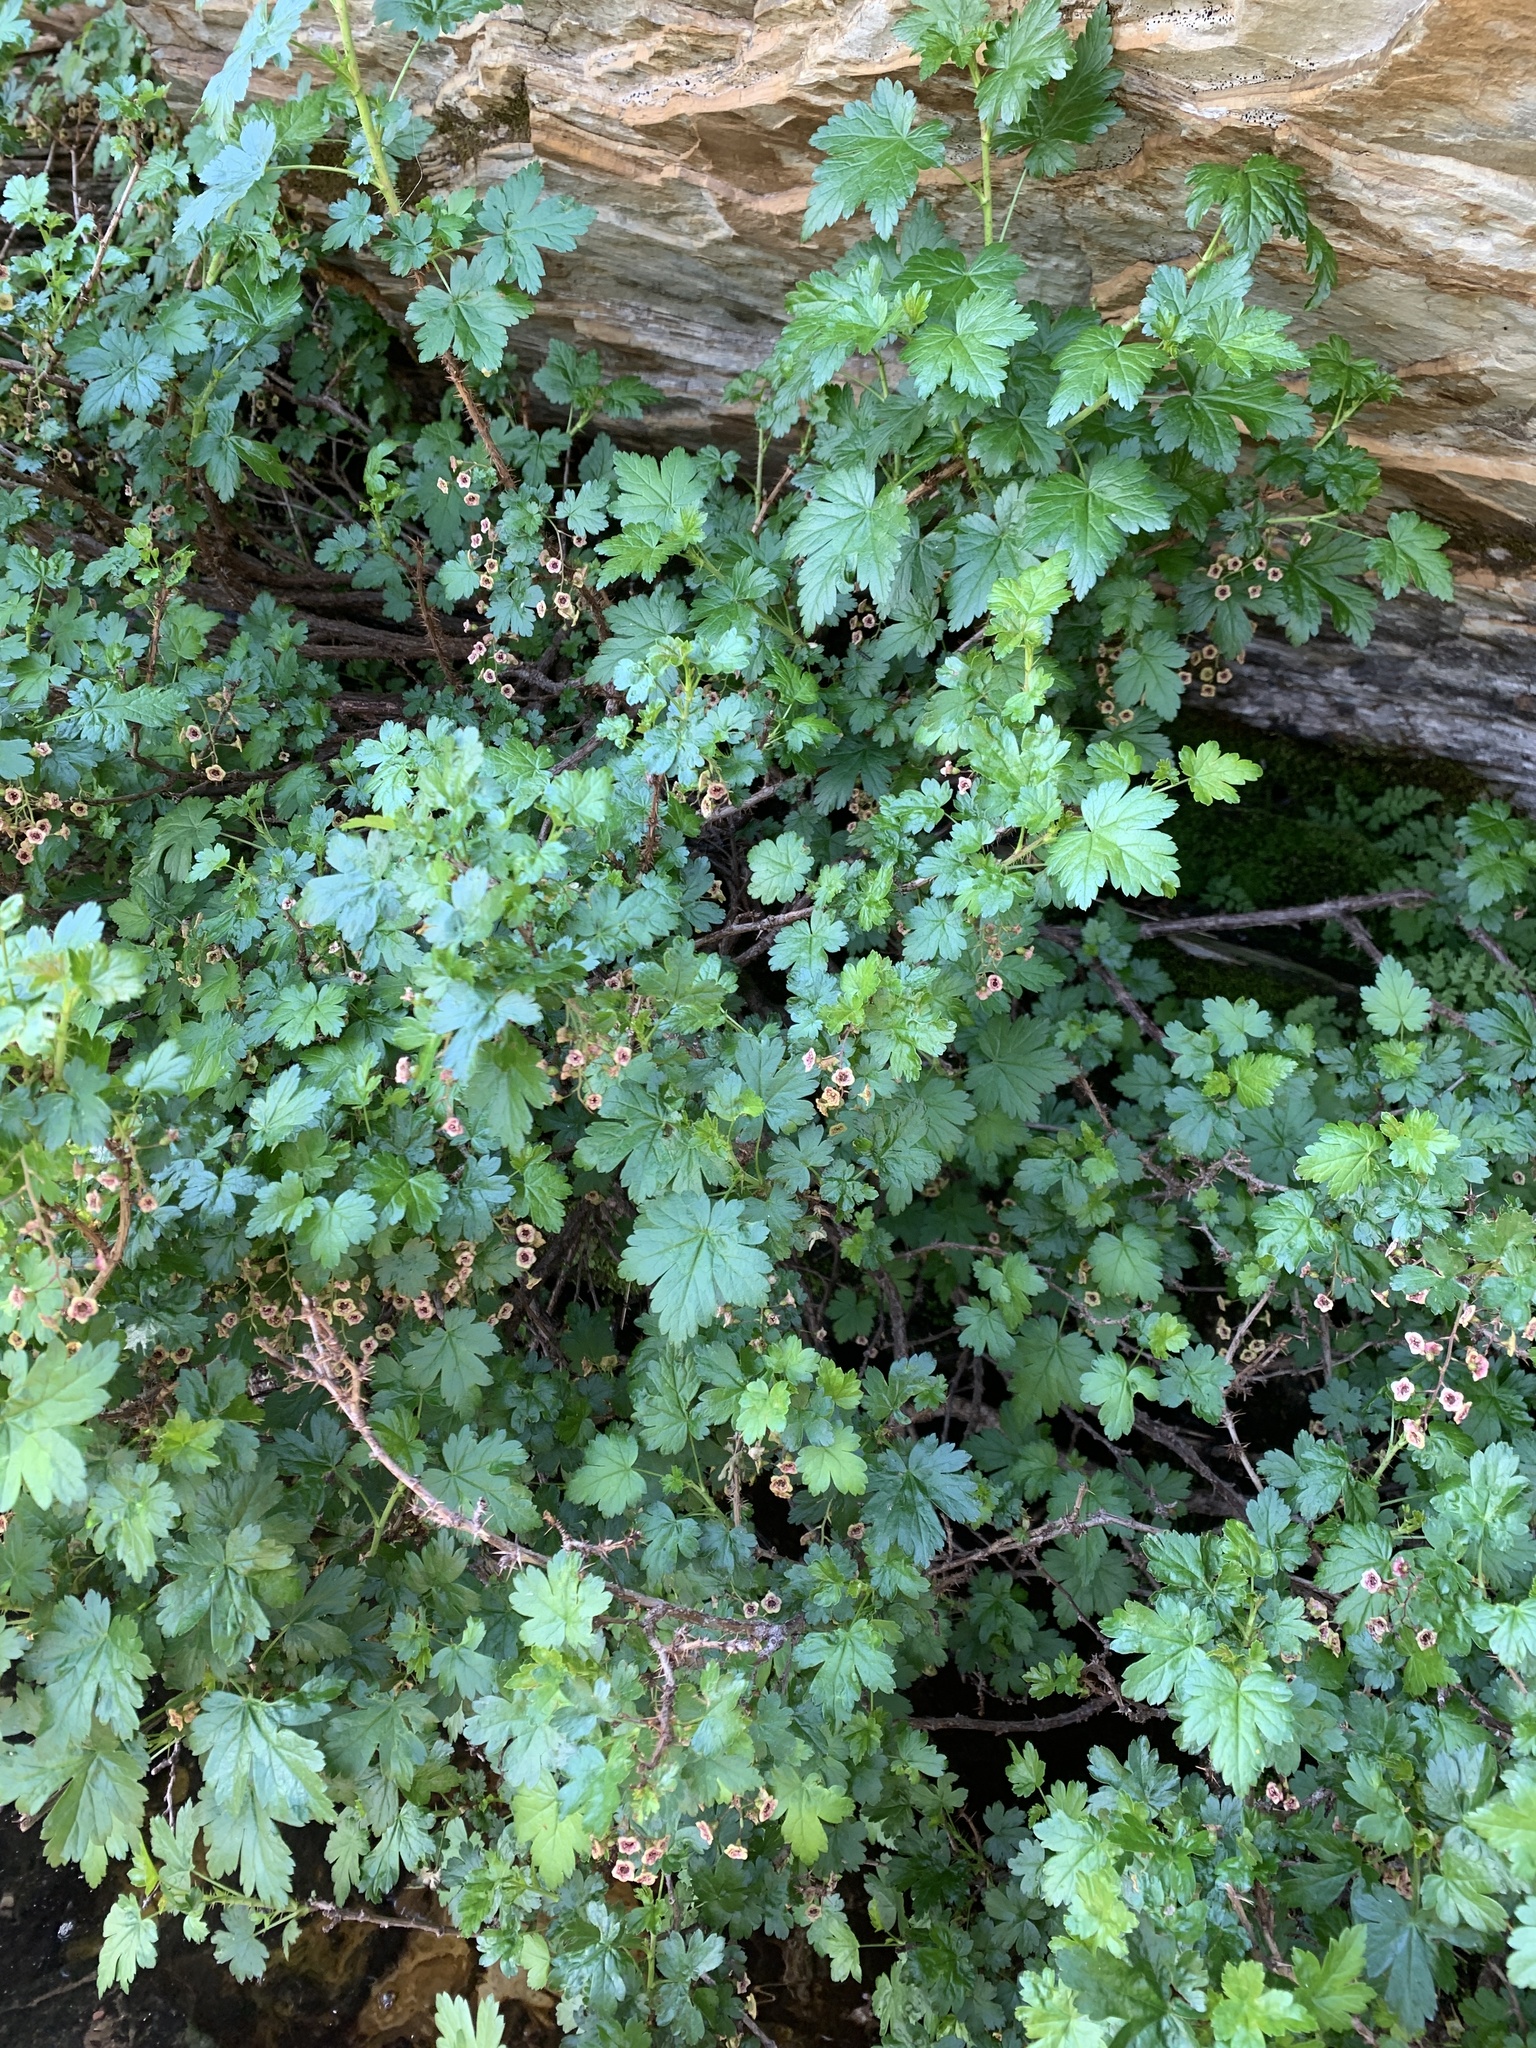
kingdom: Plantae
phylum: Tracheophyta
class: Magnoliopsida
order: Saxifragales
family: Grossulariaceae
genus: Ribes
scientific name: Ribes lacustre
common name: Black gooseberry
